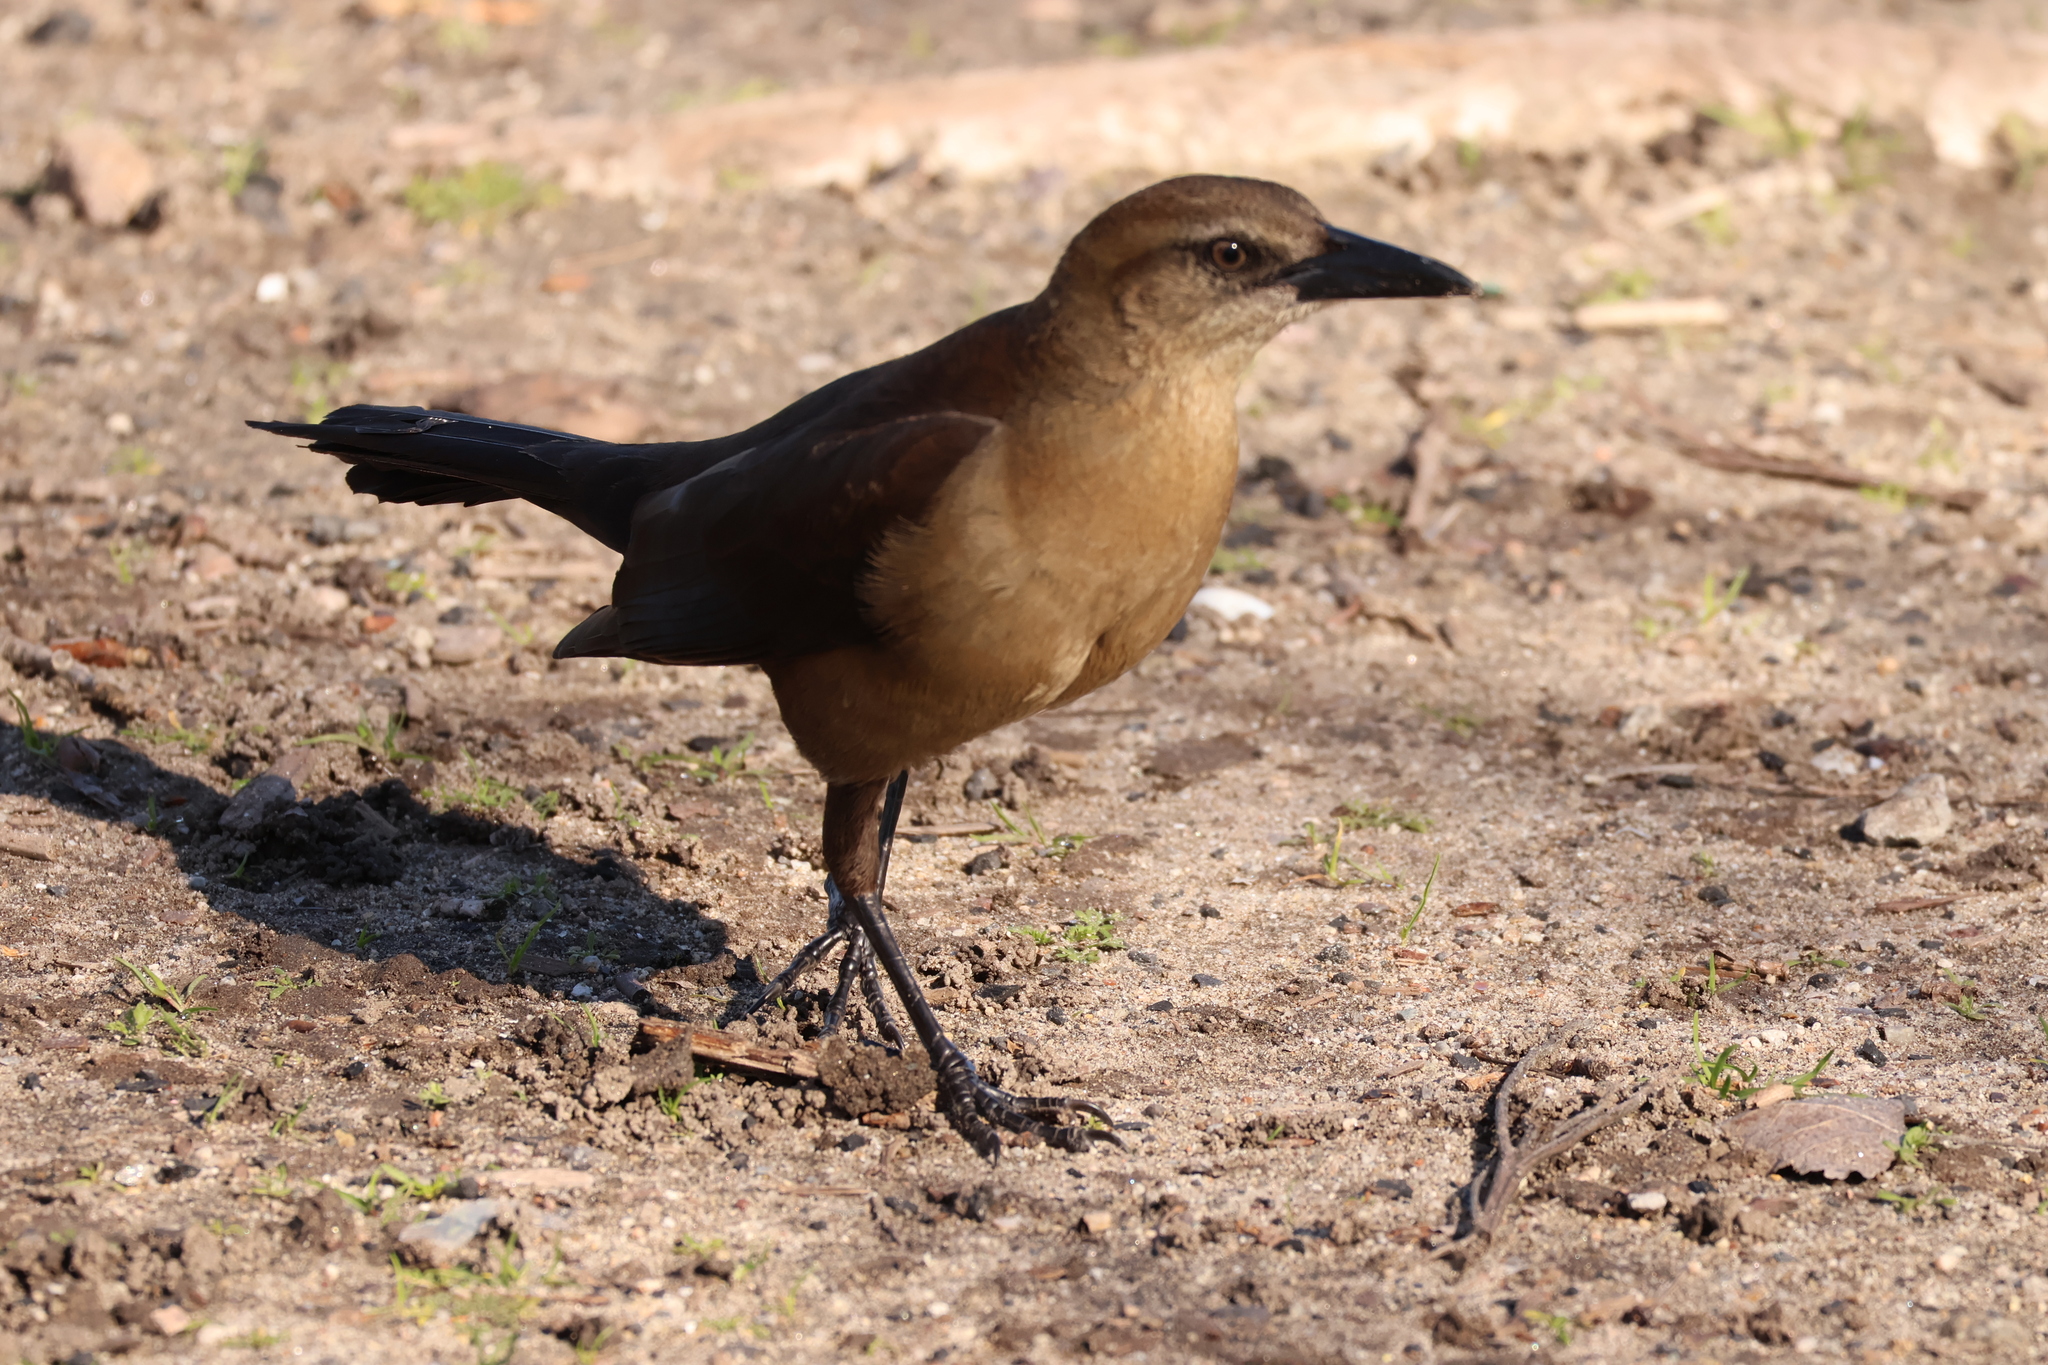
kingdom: Animalia
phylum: Chordata
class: Aves
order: Passeriformes
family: Icteridae
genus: Quiscalus
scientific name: Quiscalus mexicanus
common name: Great-tailed grackle
